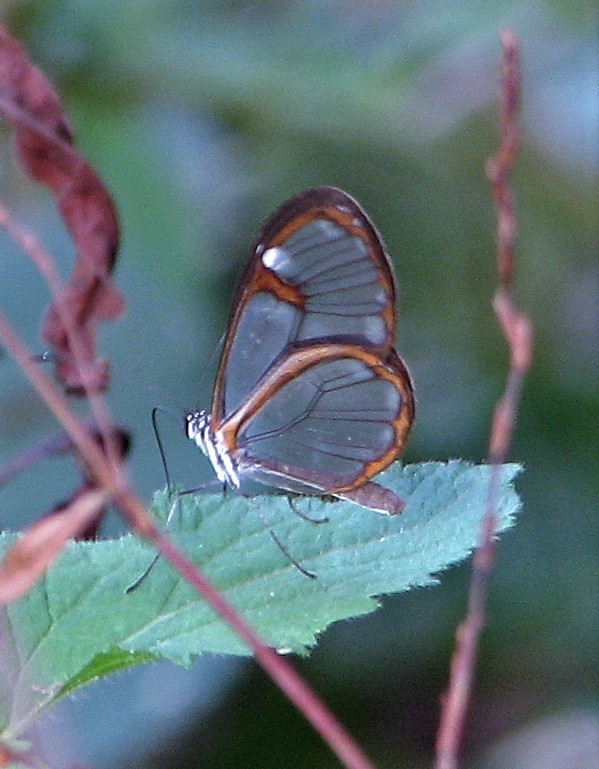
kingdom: Animalia
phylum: Arthropoda
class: Insecta
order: Lepidoptera
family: Nymphalidae
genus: Pseudoscada
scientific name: Pseudoscada erruca
